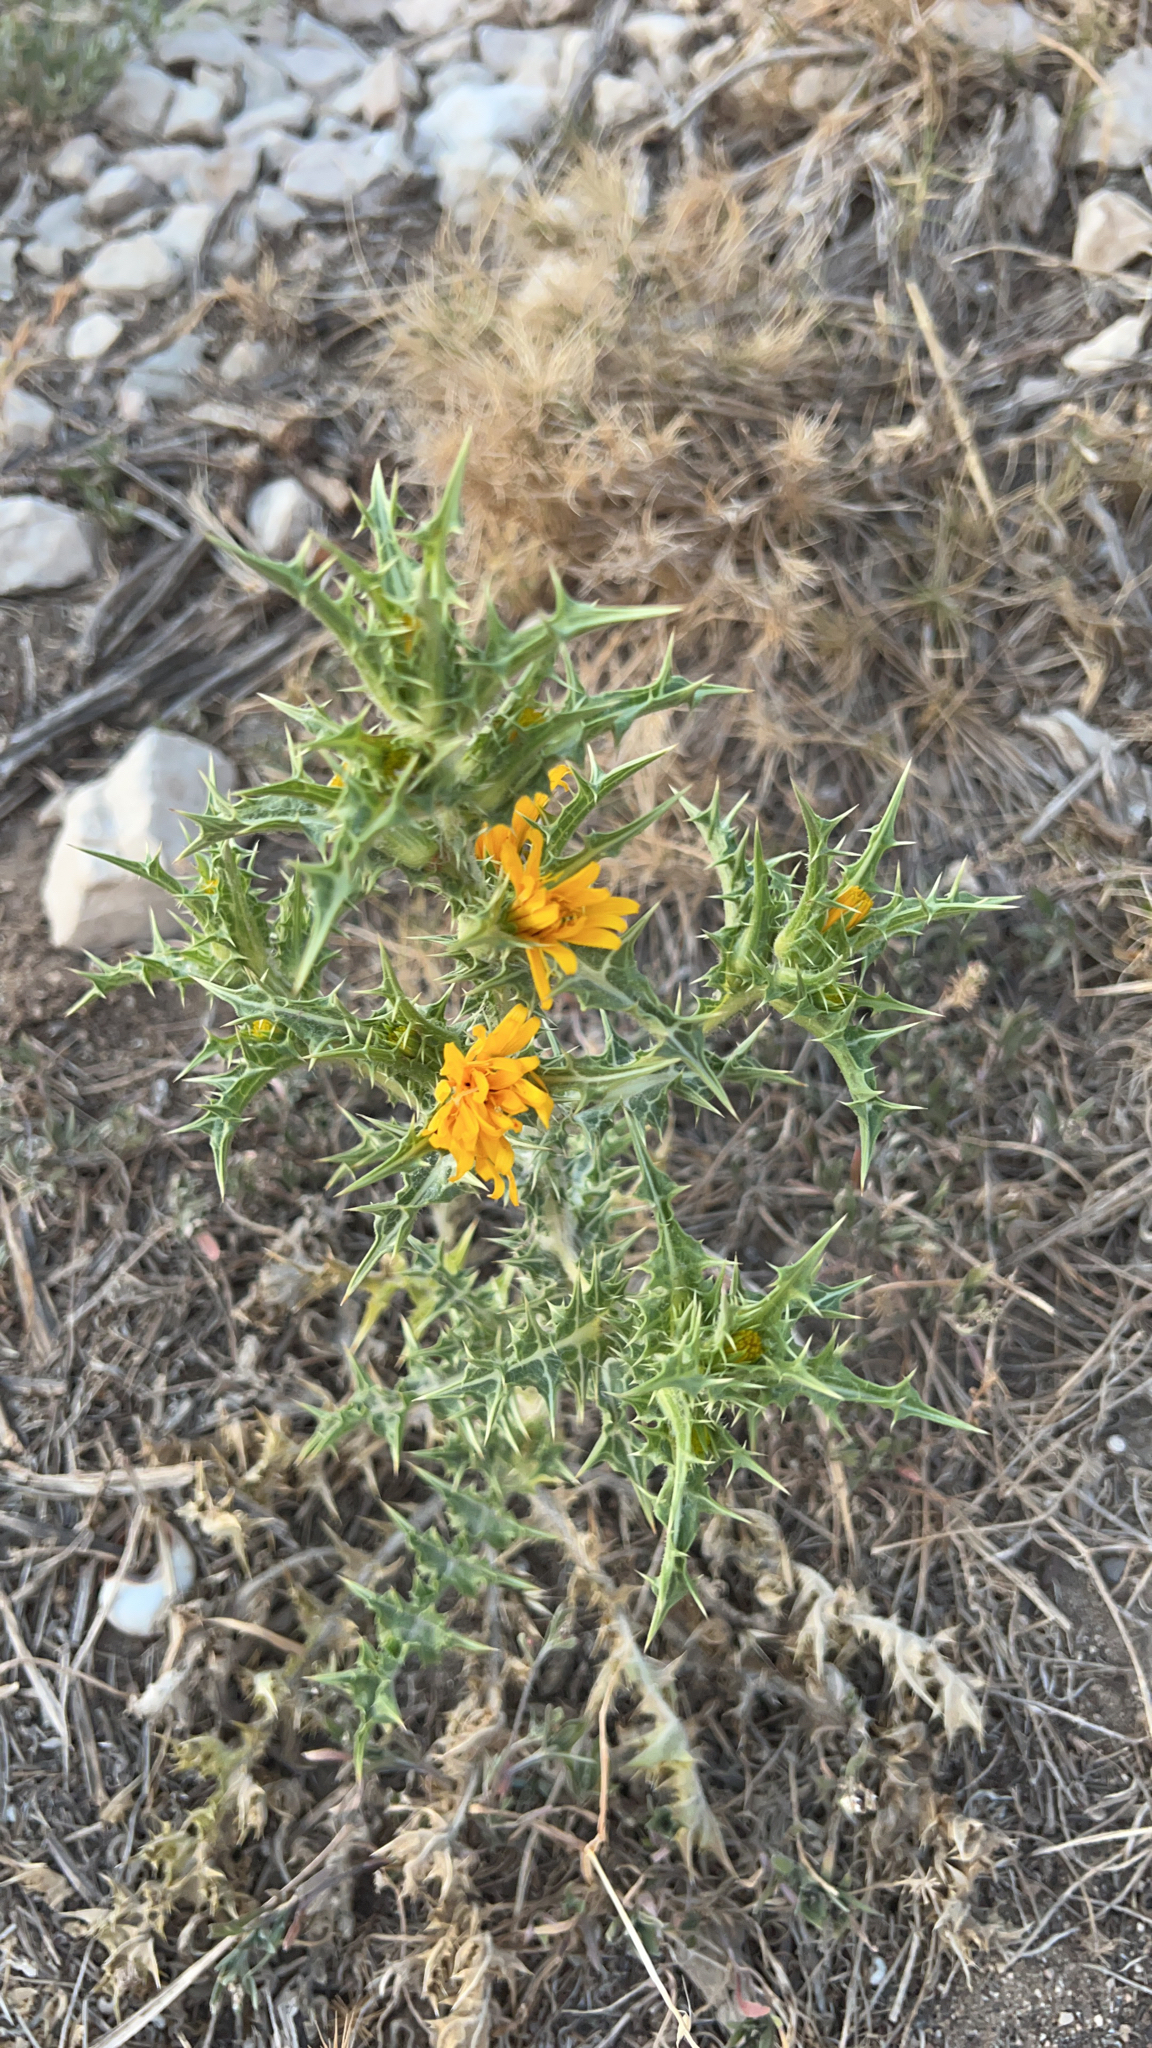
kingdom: Plantae
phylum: Tracheophyta
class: Magnoliopsida
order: Asterales
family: Asteraceae
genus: Scolymus
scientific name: Scolymus hispanicus
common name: Golden thistle
